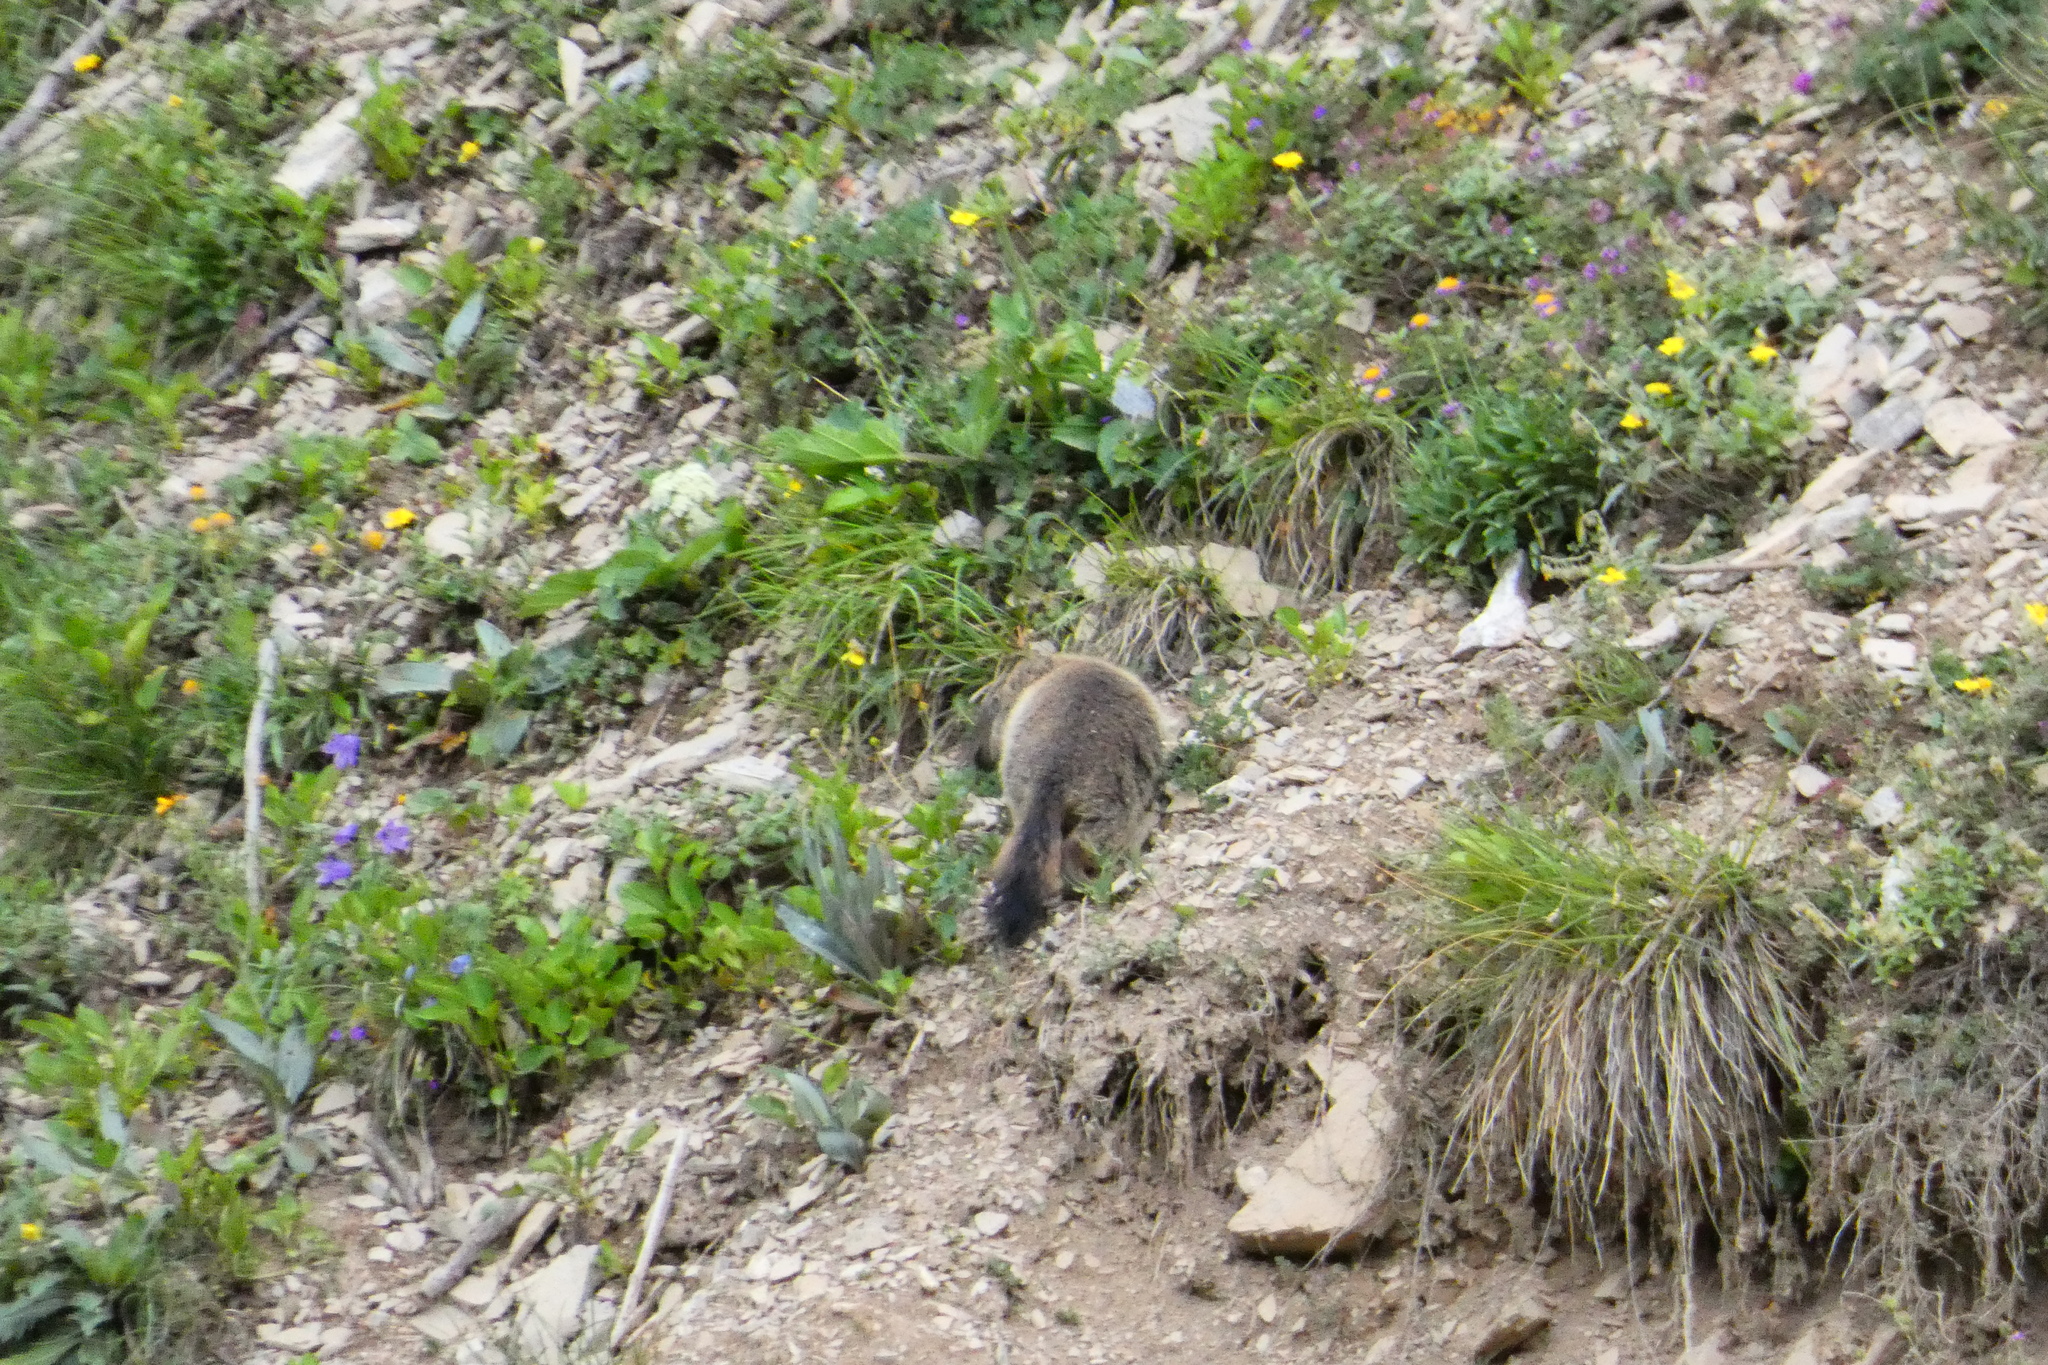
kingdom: Animalia
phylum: Chordata
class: Mammalia
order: Rodentia
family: Sciuridae
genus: Marmota
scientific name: Marmota marmota
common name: Alpine marmot
